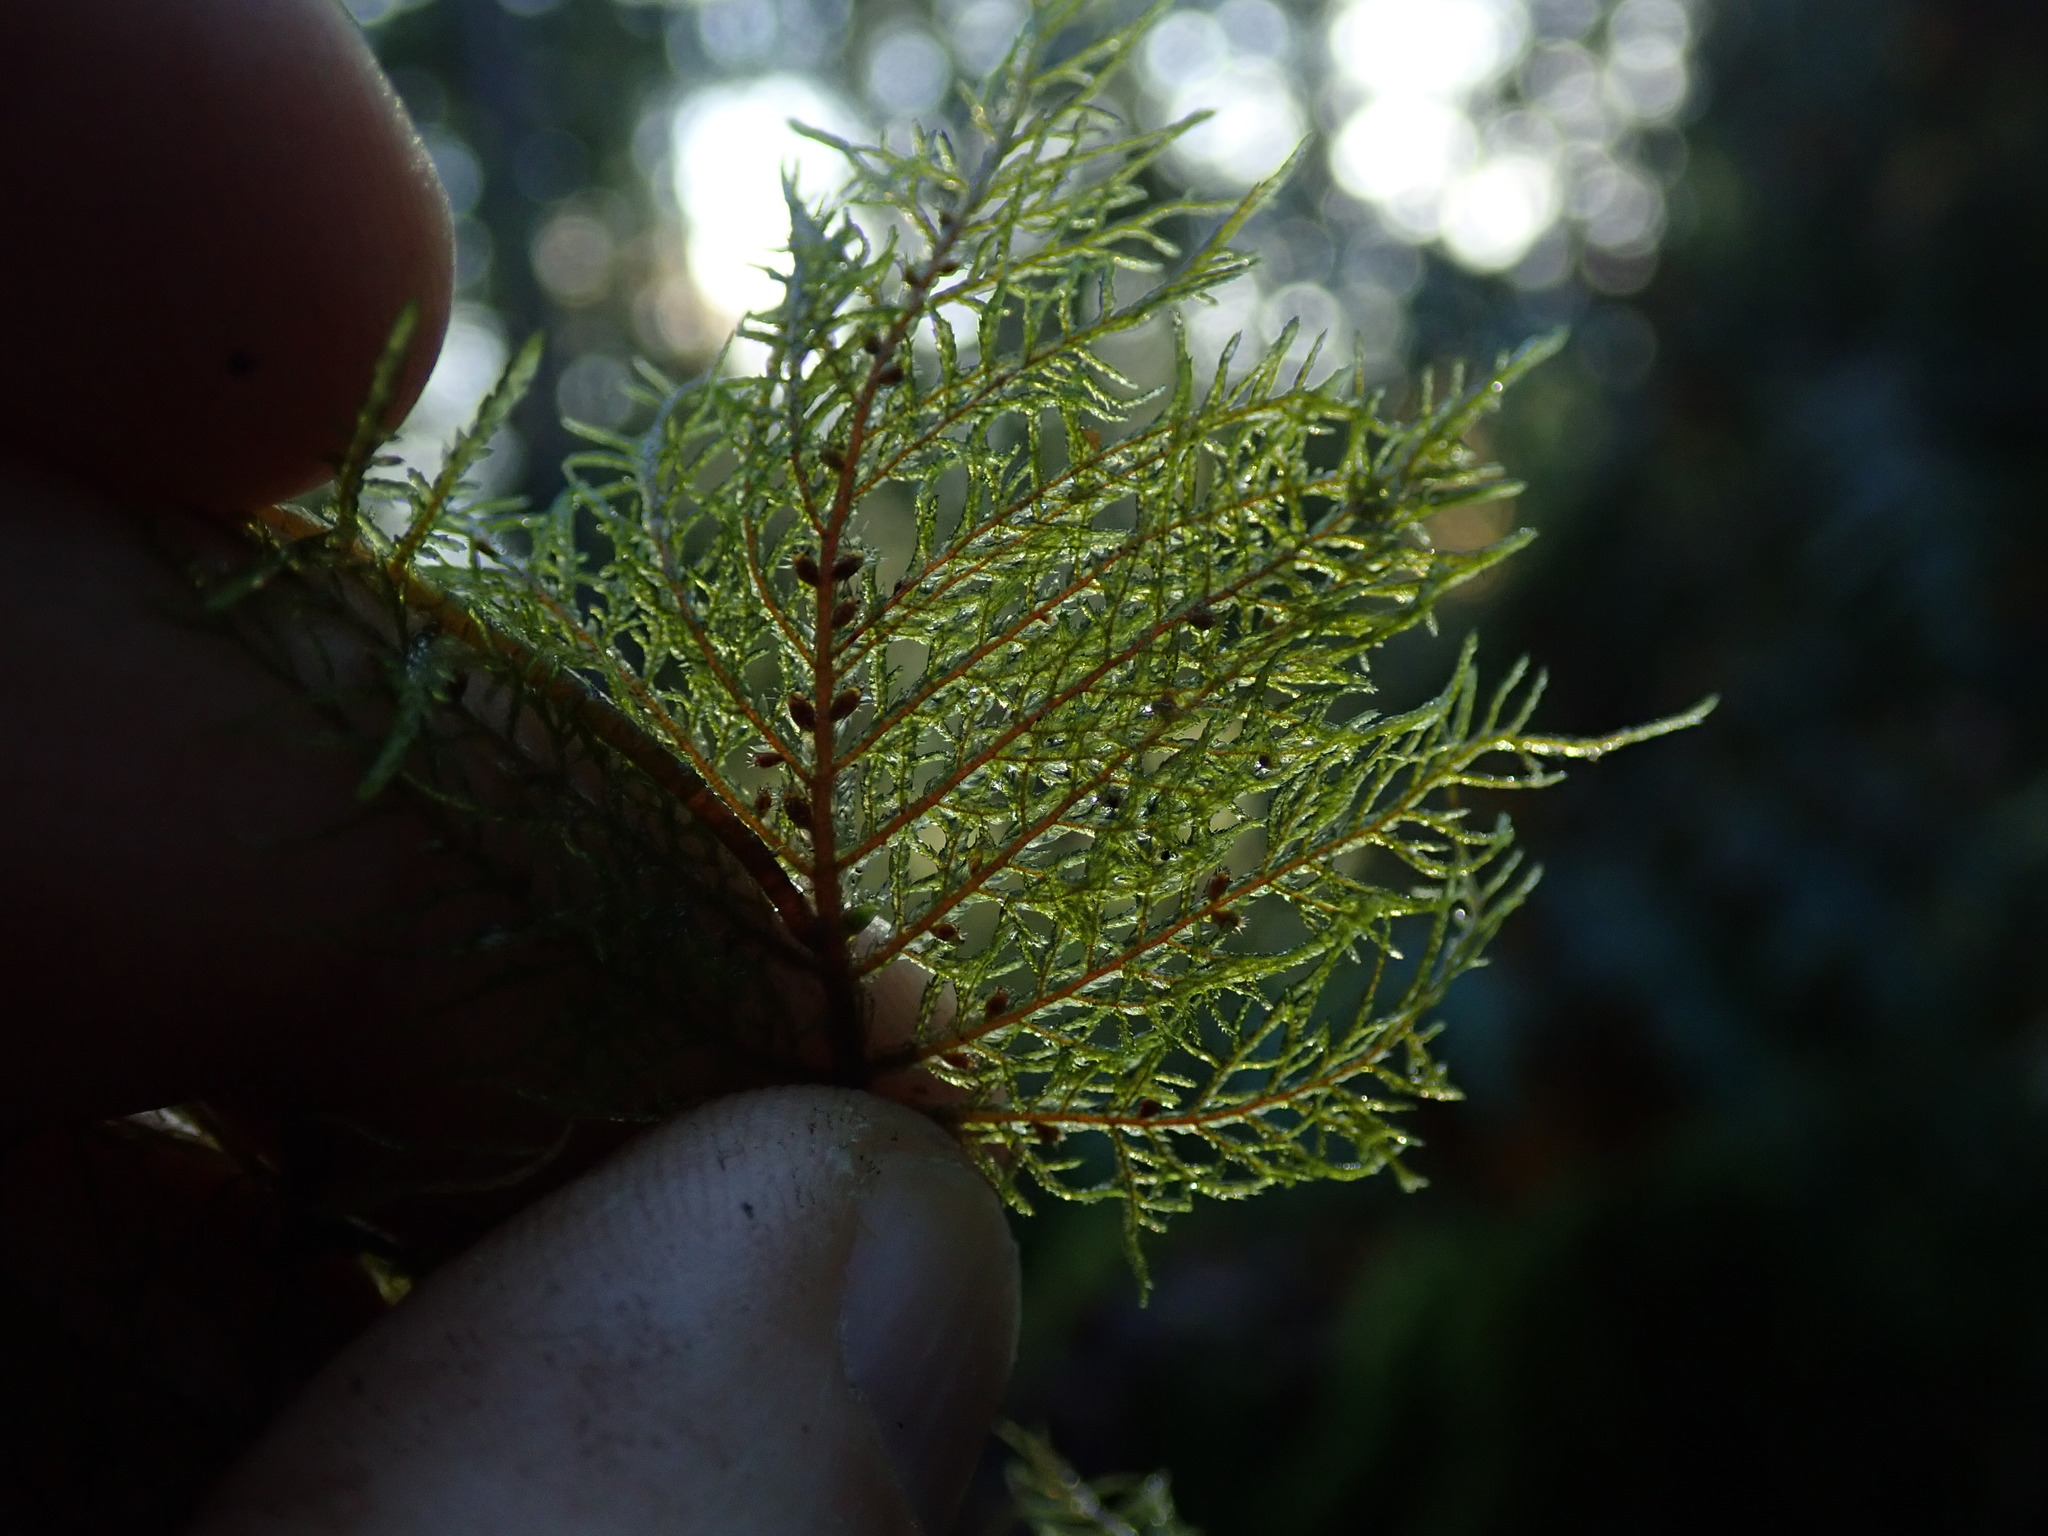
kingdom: Plantae
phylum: Bryophyta
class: Bryopsida
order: Hypnales
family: Hylocomiaceae
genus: Hylocomium
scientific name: Hylocomium splendens
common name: Stairstep moss
